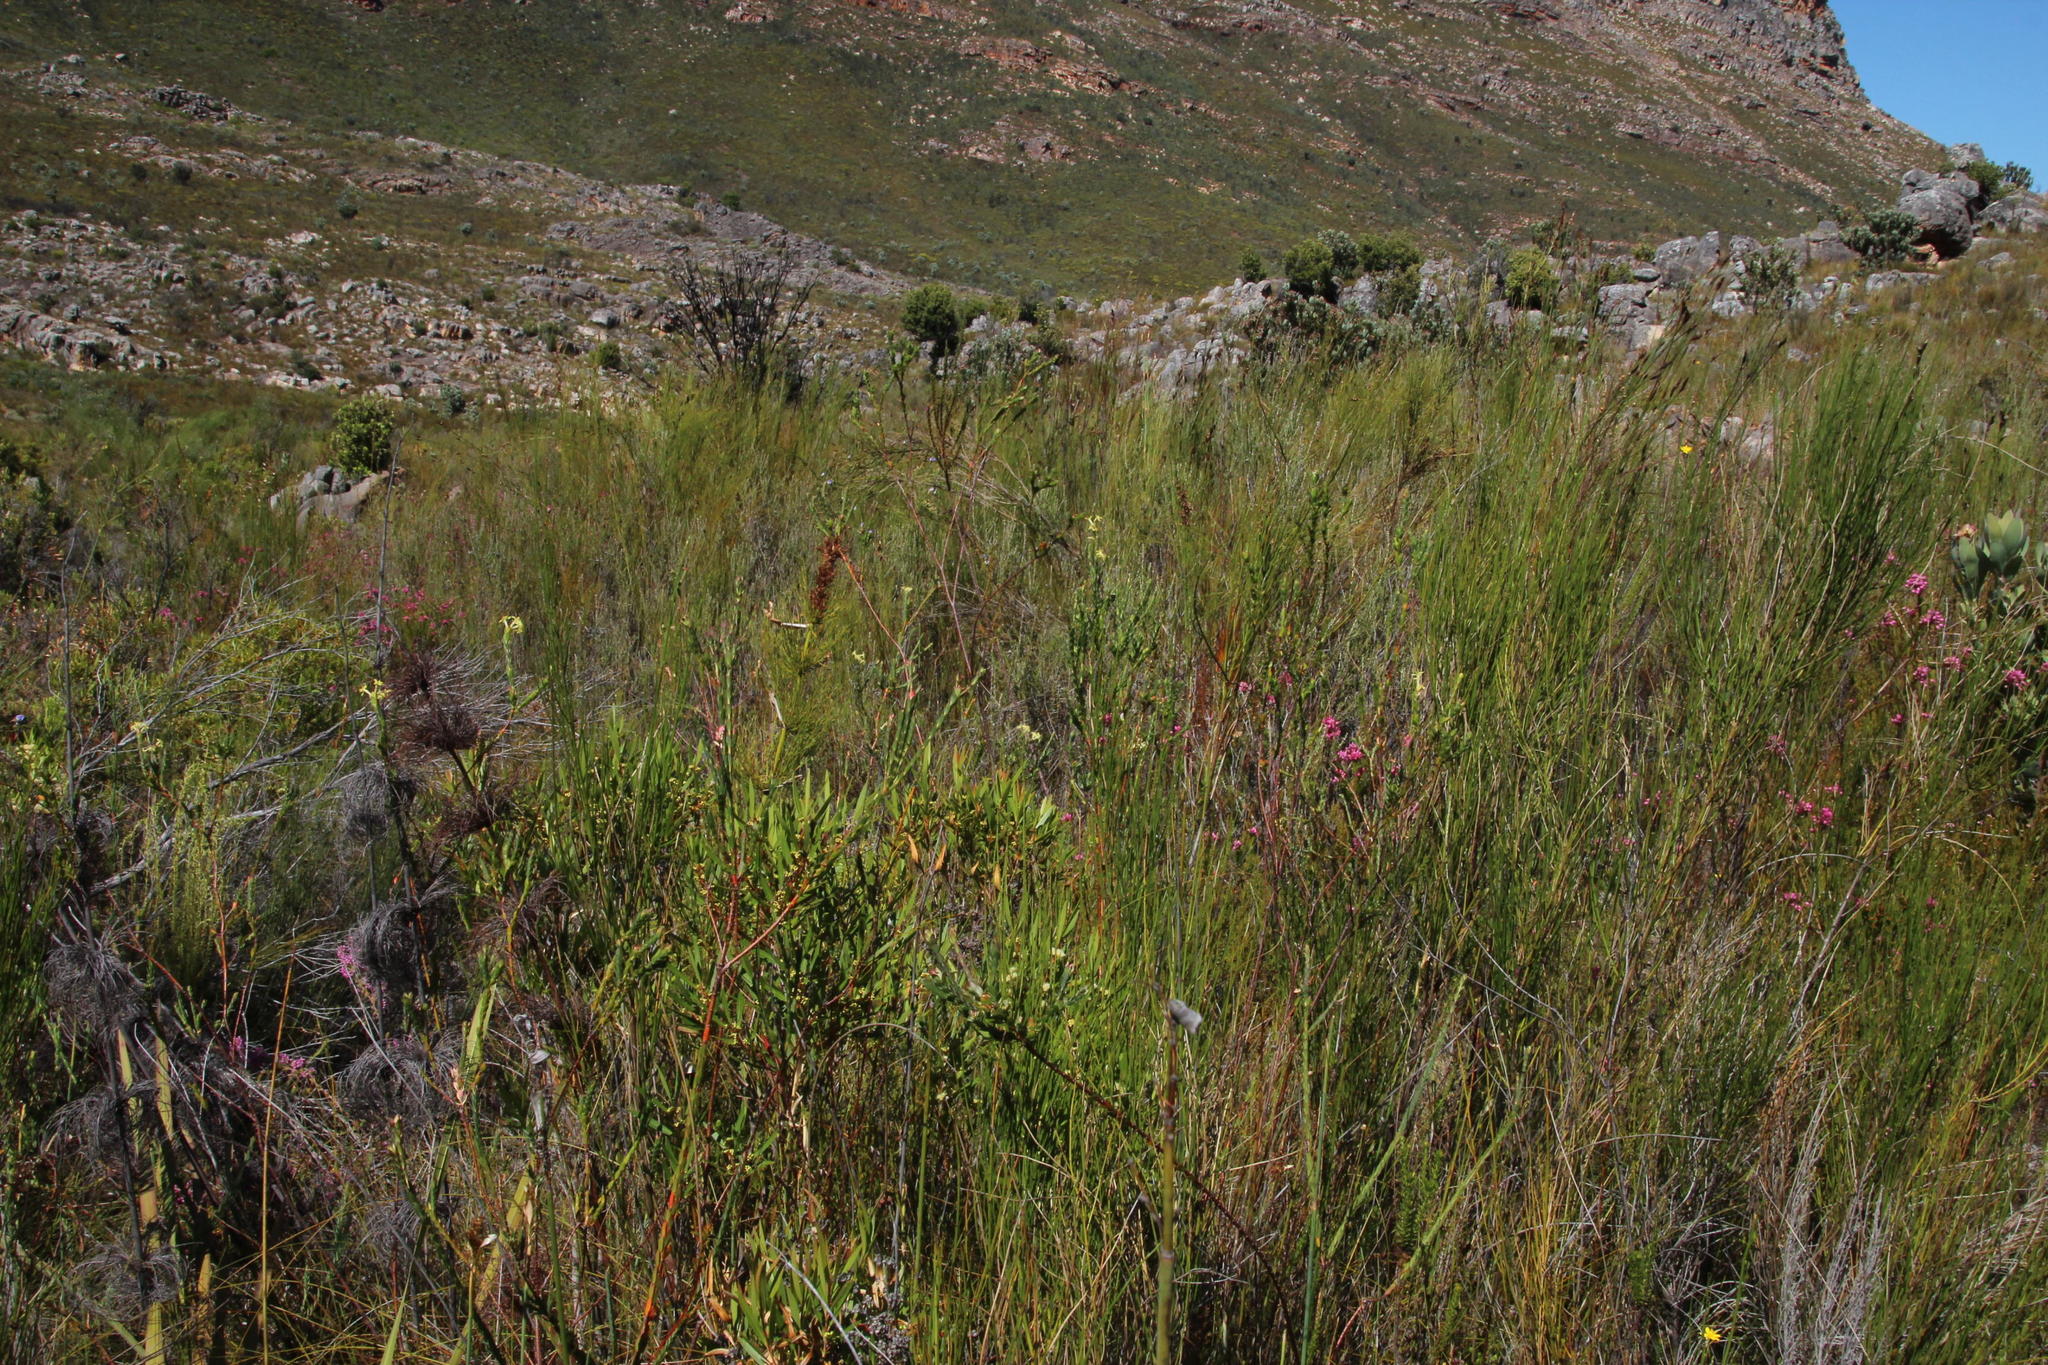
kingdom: Plantae
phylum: Tracheophyta
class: Magnoliopsida
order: Malvales
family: Thymelaeaceae
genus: Gnidia
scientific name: Gnidia oppositifolia
